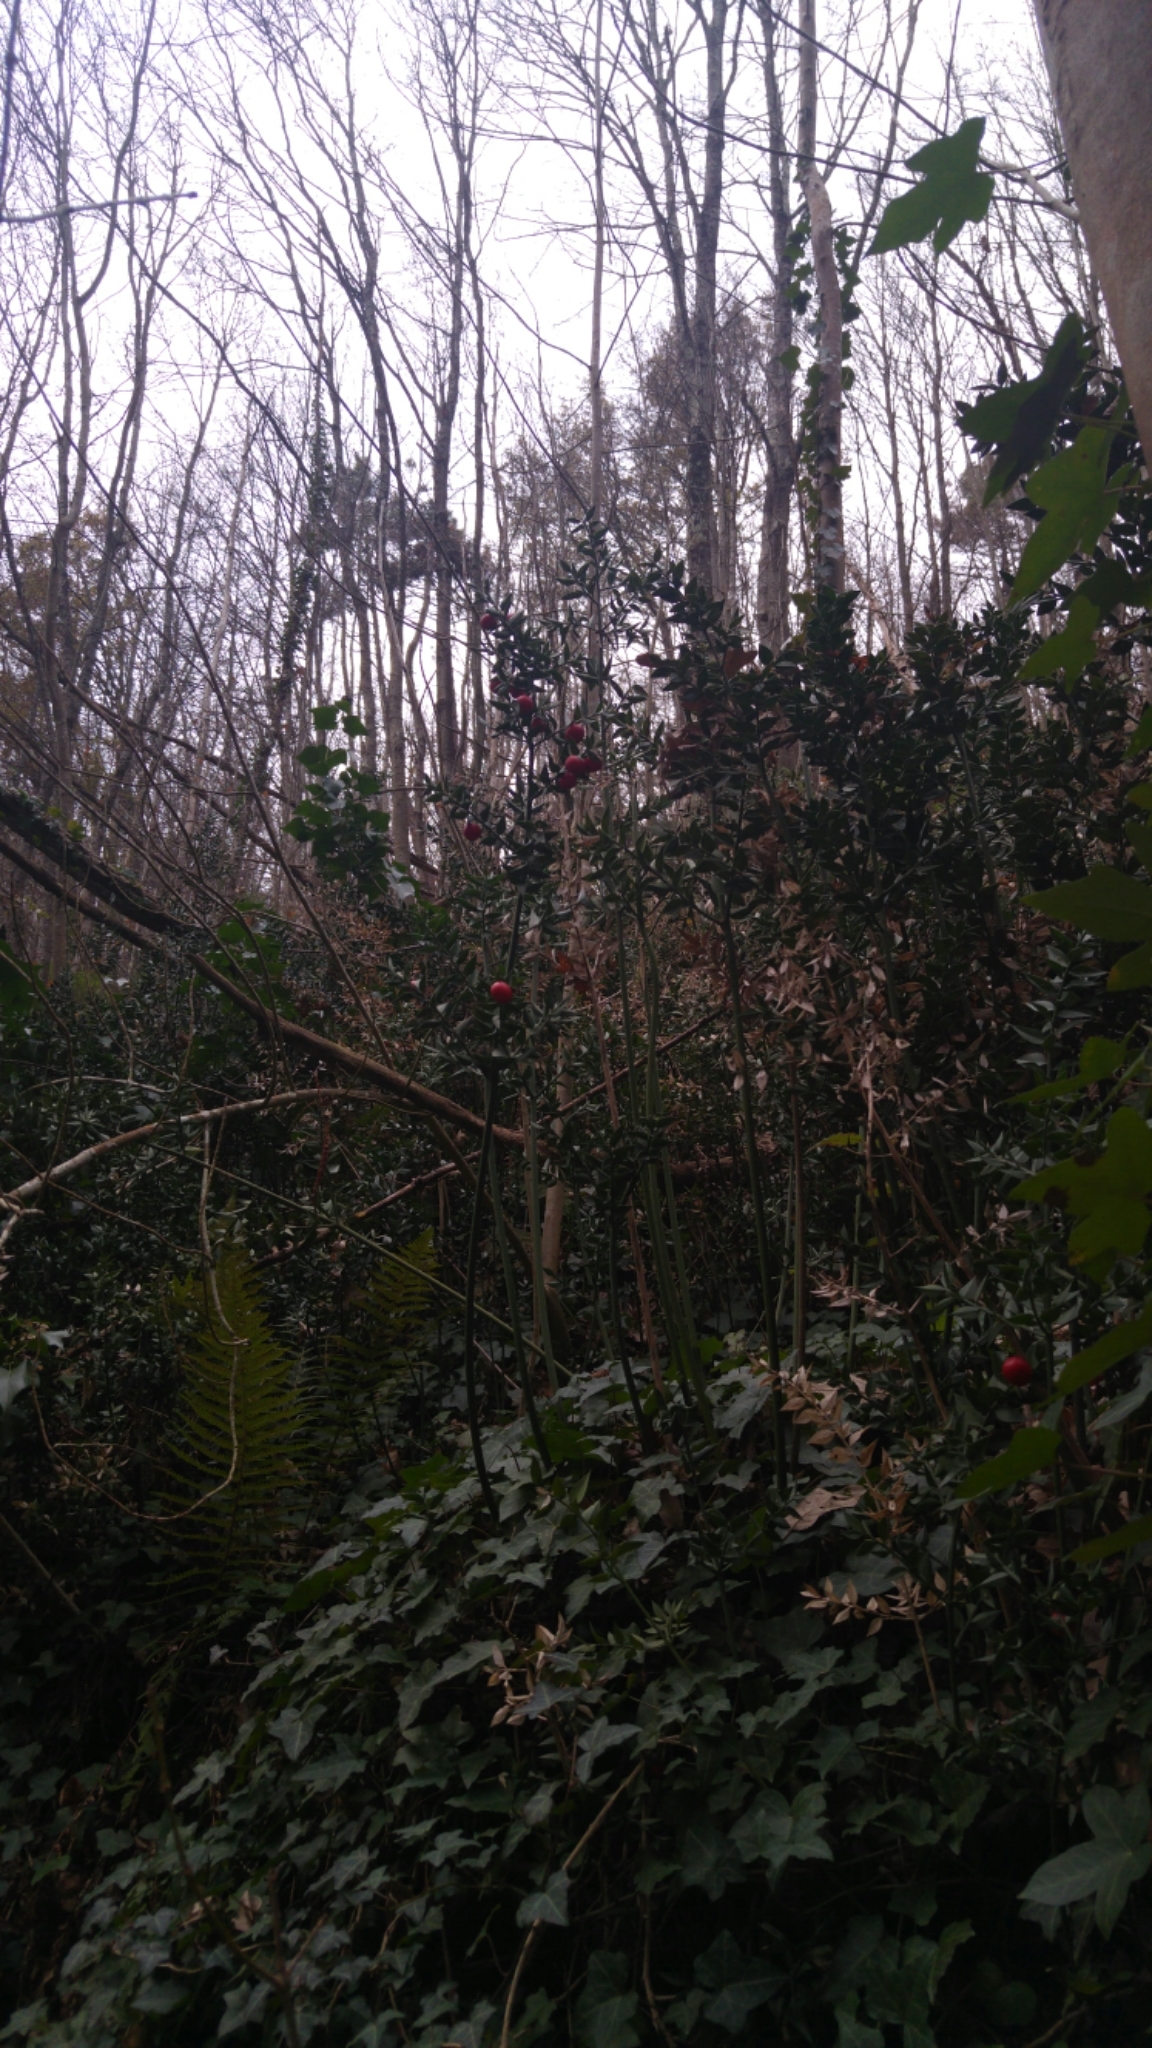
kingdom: Plantae
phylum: Tracheophyta
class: Liliopsida
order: Asparagales
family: Asparagaceae
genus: Ruscus
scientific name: Ruscus aculeatus
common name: Butcher's-broom
